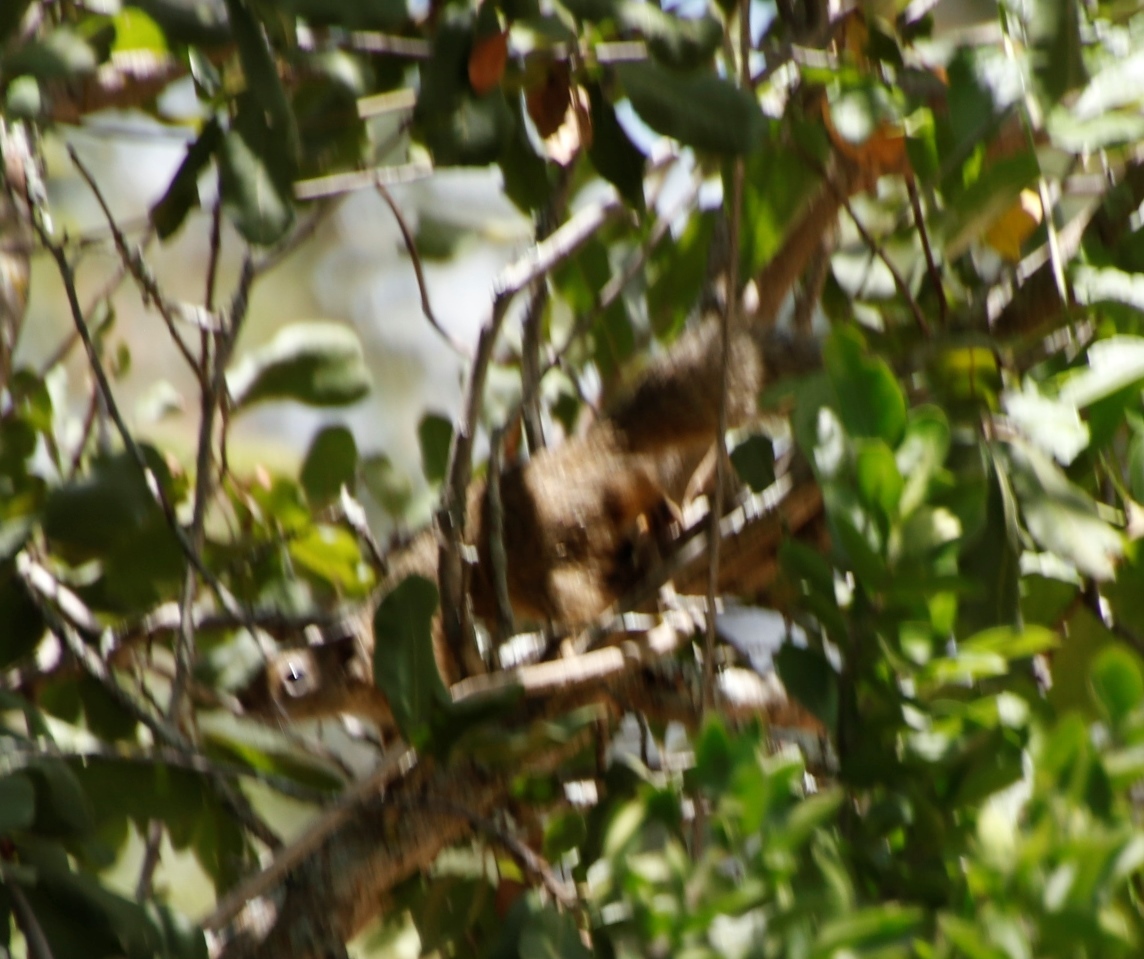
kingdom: Animalia
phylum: Chordata
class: Mammalia
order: Rodentia
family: Sciuridae
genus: Paraxerus
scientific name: Paraxerus cepapi
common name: Smith's bush squirrel
